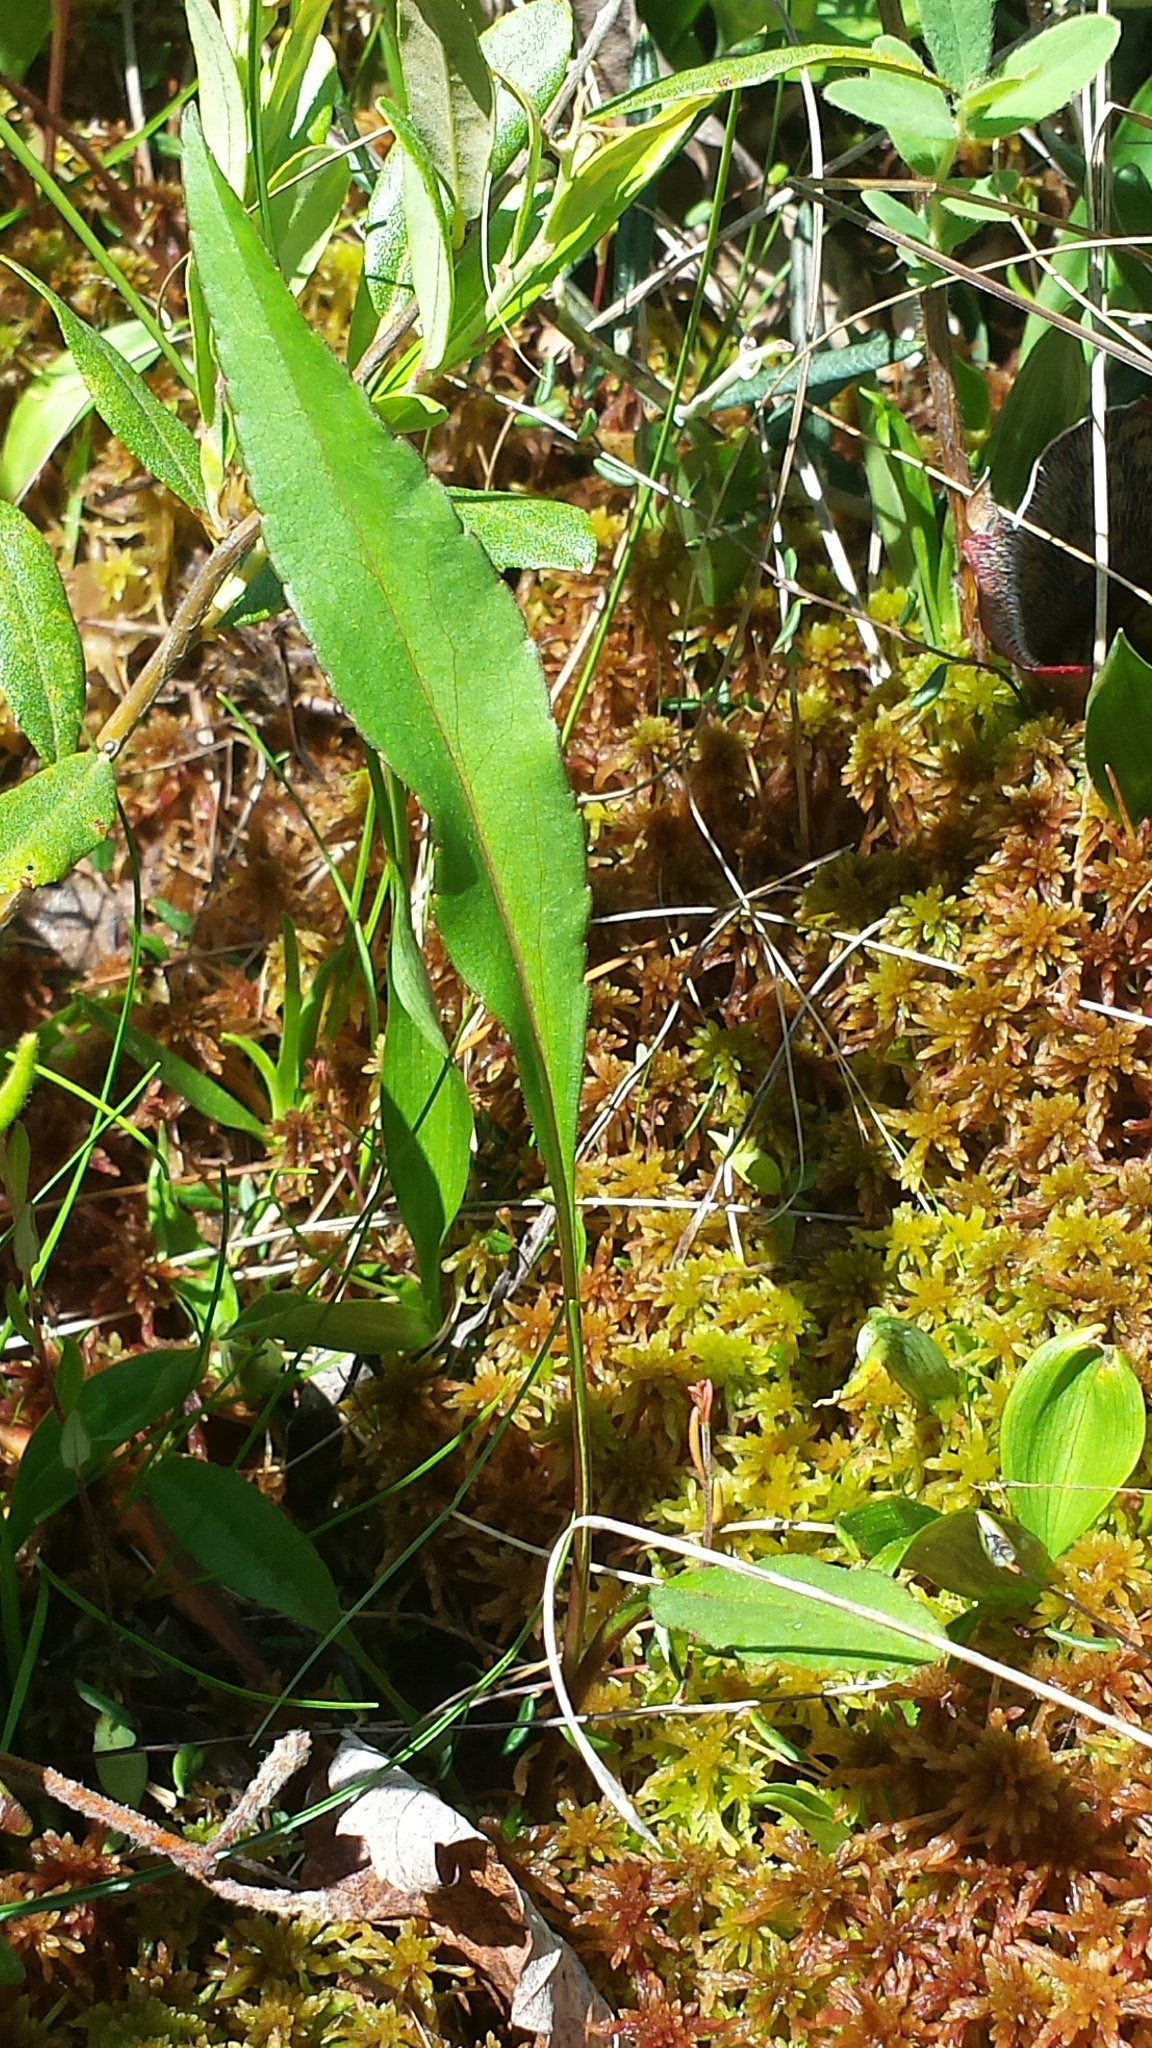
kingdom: Plantae
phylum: Tracheophyta
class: Magnoliopsida
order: Asterales
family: Asteraceae
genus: Solidago
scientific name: Solidago uliginosa
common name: Bog goldenrod
